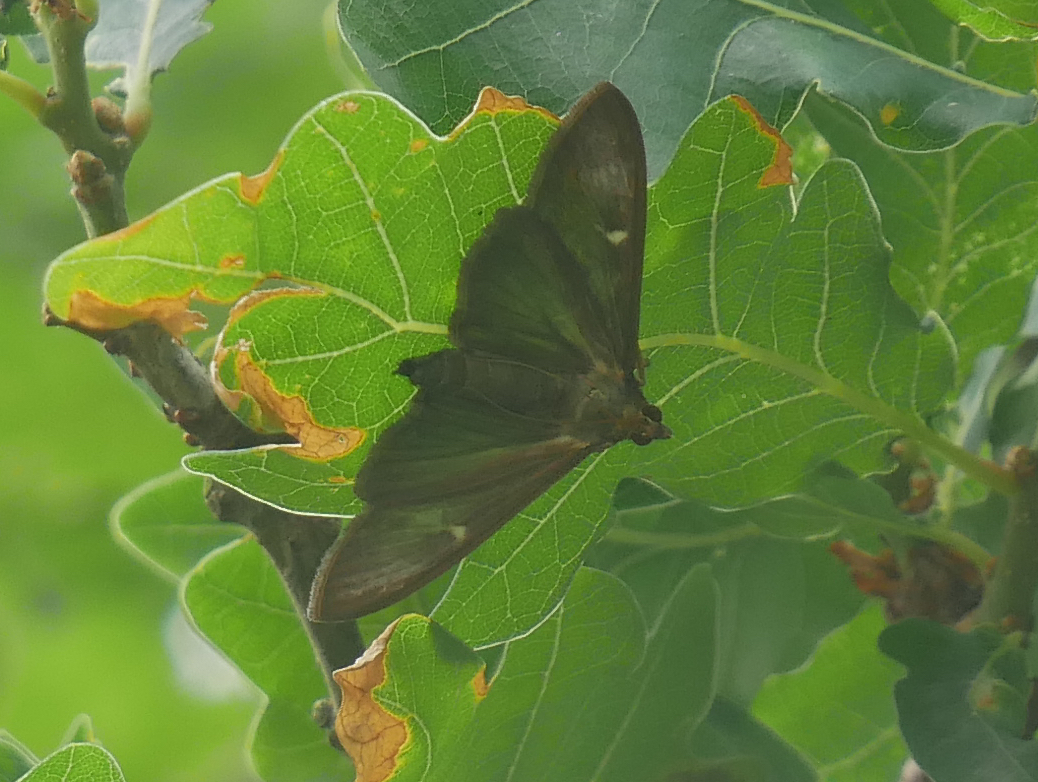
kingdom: Animalia
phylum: Arthropoda
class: Insecta
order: Lepidoptera
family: Crambidae
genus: Cydalima
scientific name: Cydalima perspectalis
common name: Box tree moth
